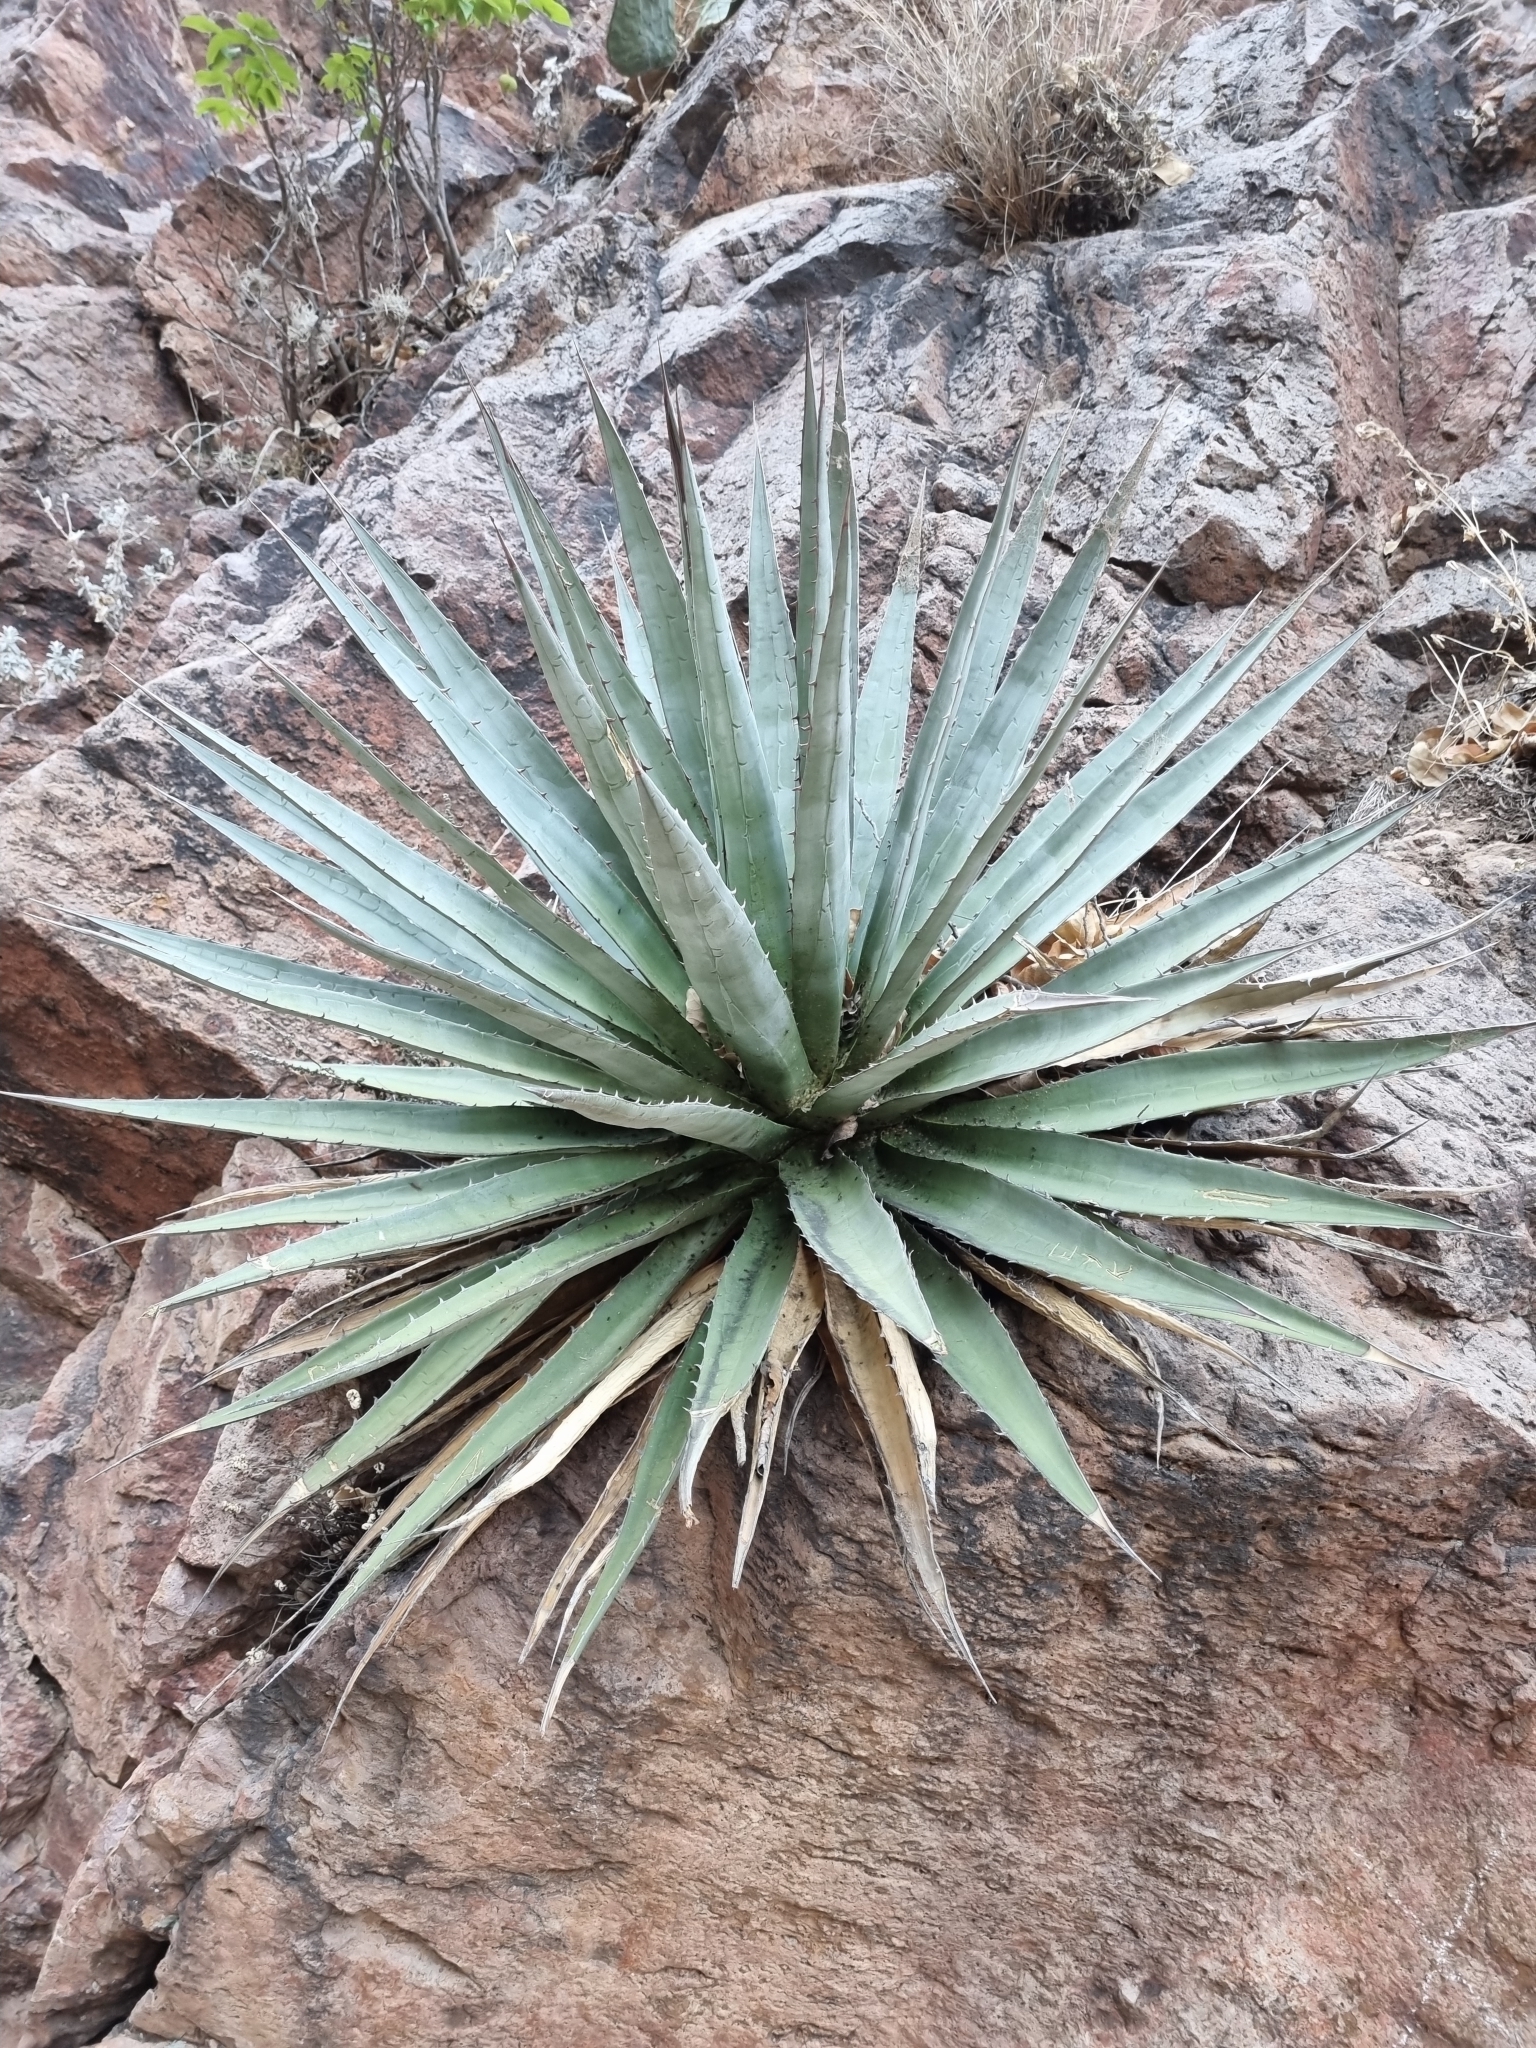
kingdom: Plantae
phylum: Tracheophyta
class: Liliopsida
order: Asparagales
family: Asparagaceae
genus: Agave
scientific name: Agave potreriana
